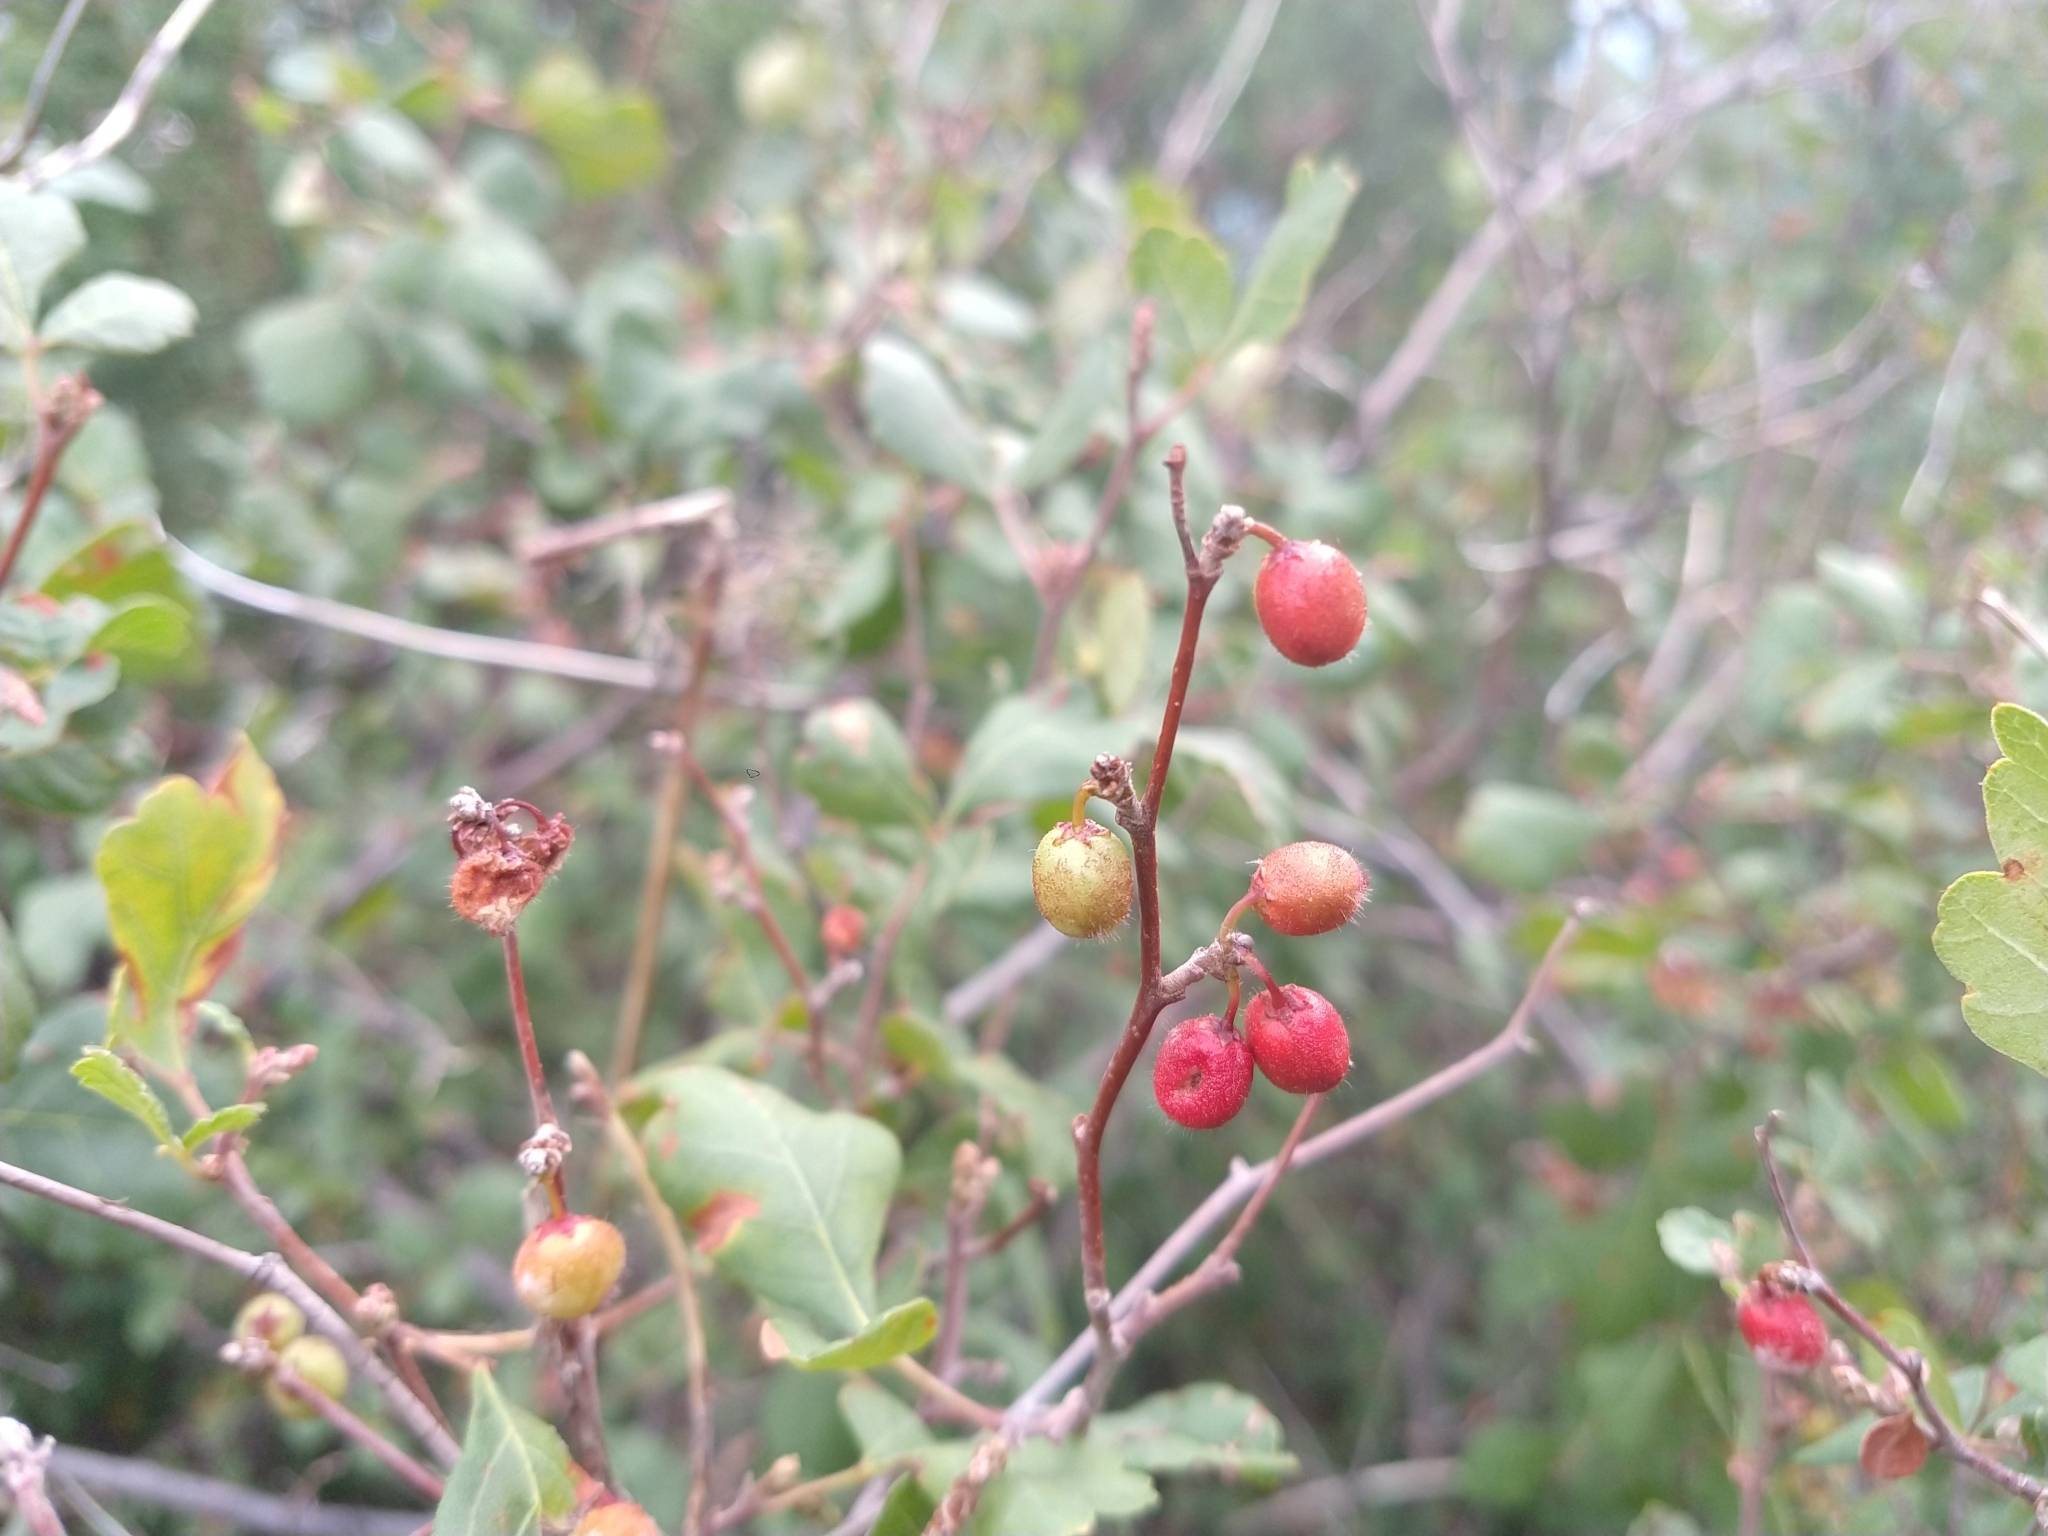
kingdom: Plantae
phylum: Tracheophyta
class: Magnoliopsida
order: Sapindales
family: Anacardiaceae
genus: Rhus
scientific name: Rhus aromatica
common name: Aromatic sumac
